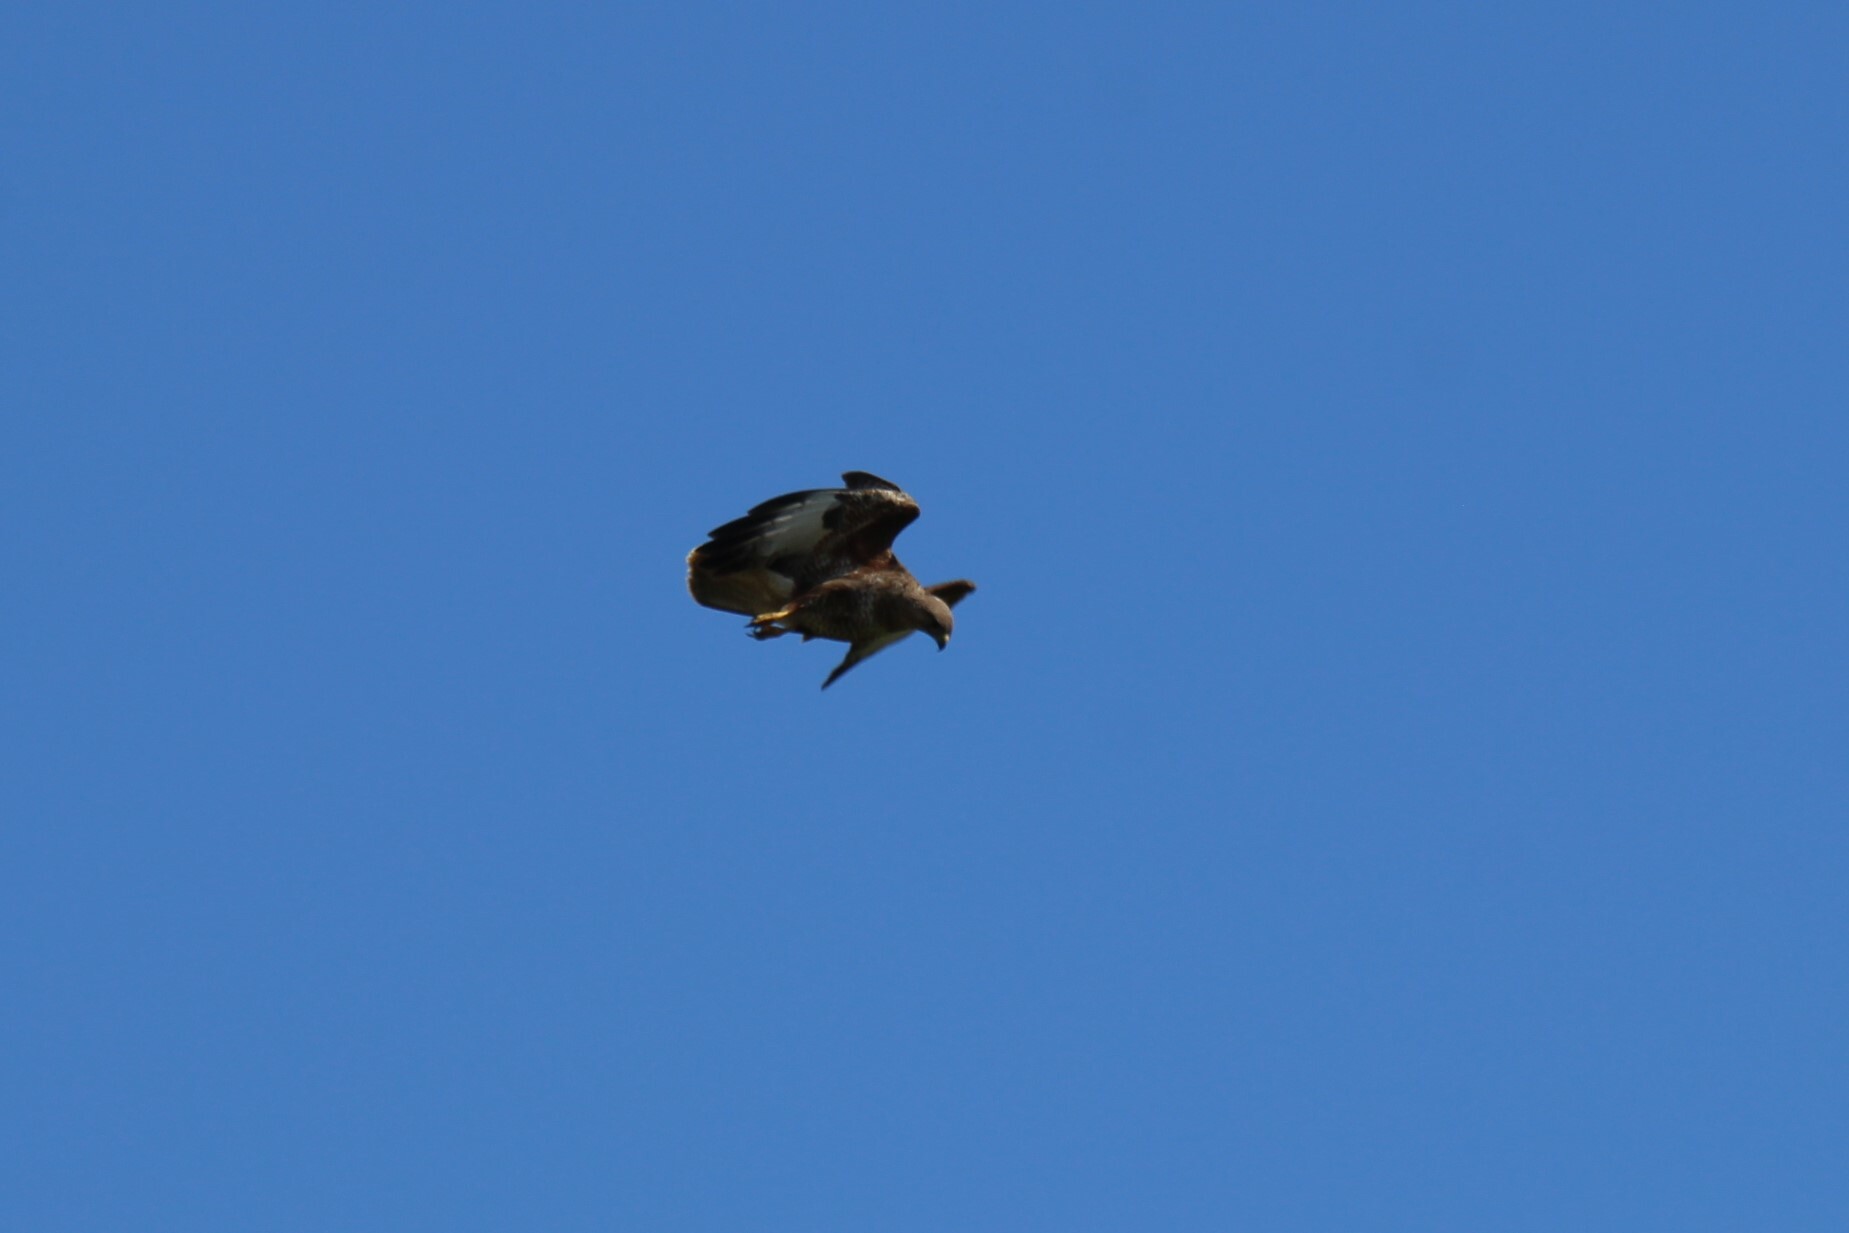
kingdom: Animalia
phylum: Chordata
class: Aves
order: Accipitriformes
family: Accipitridae
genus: Buteo
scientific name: Buteo buteo
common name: Common buzzard
